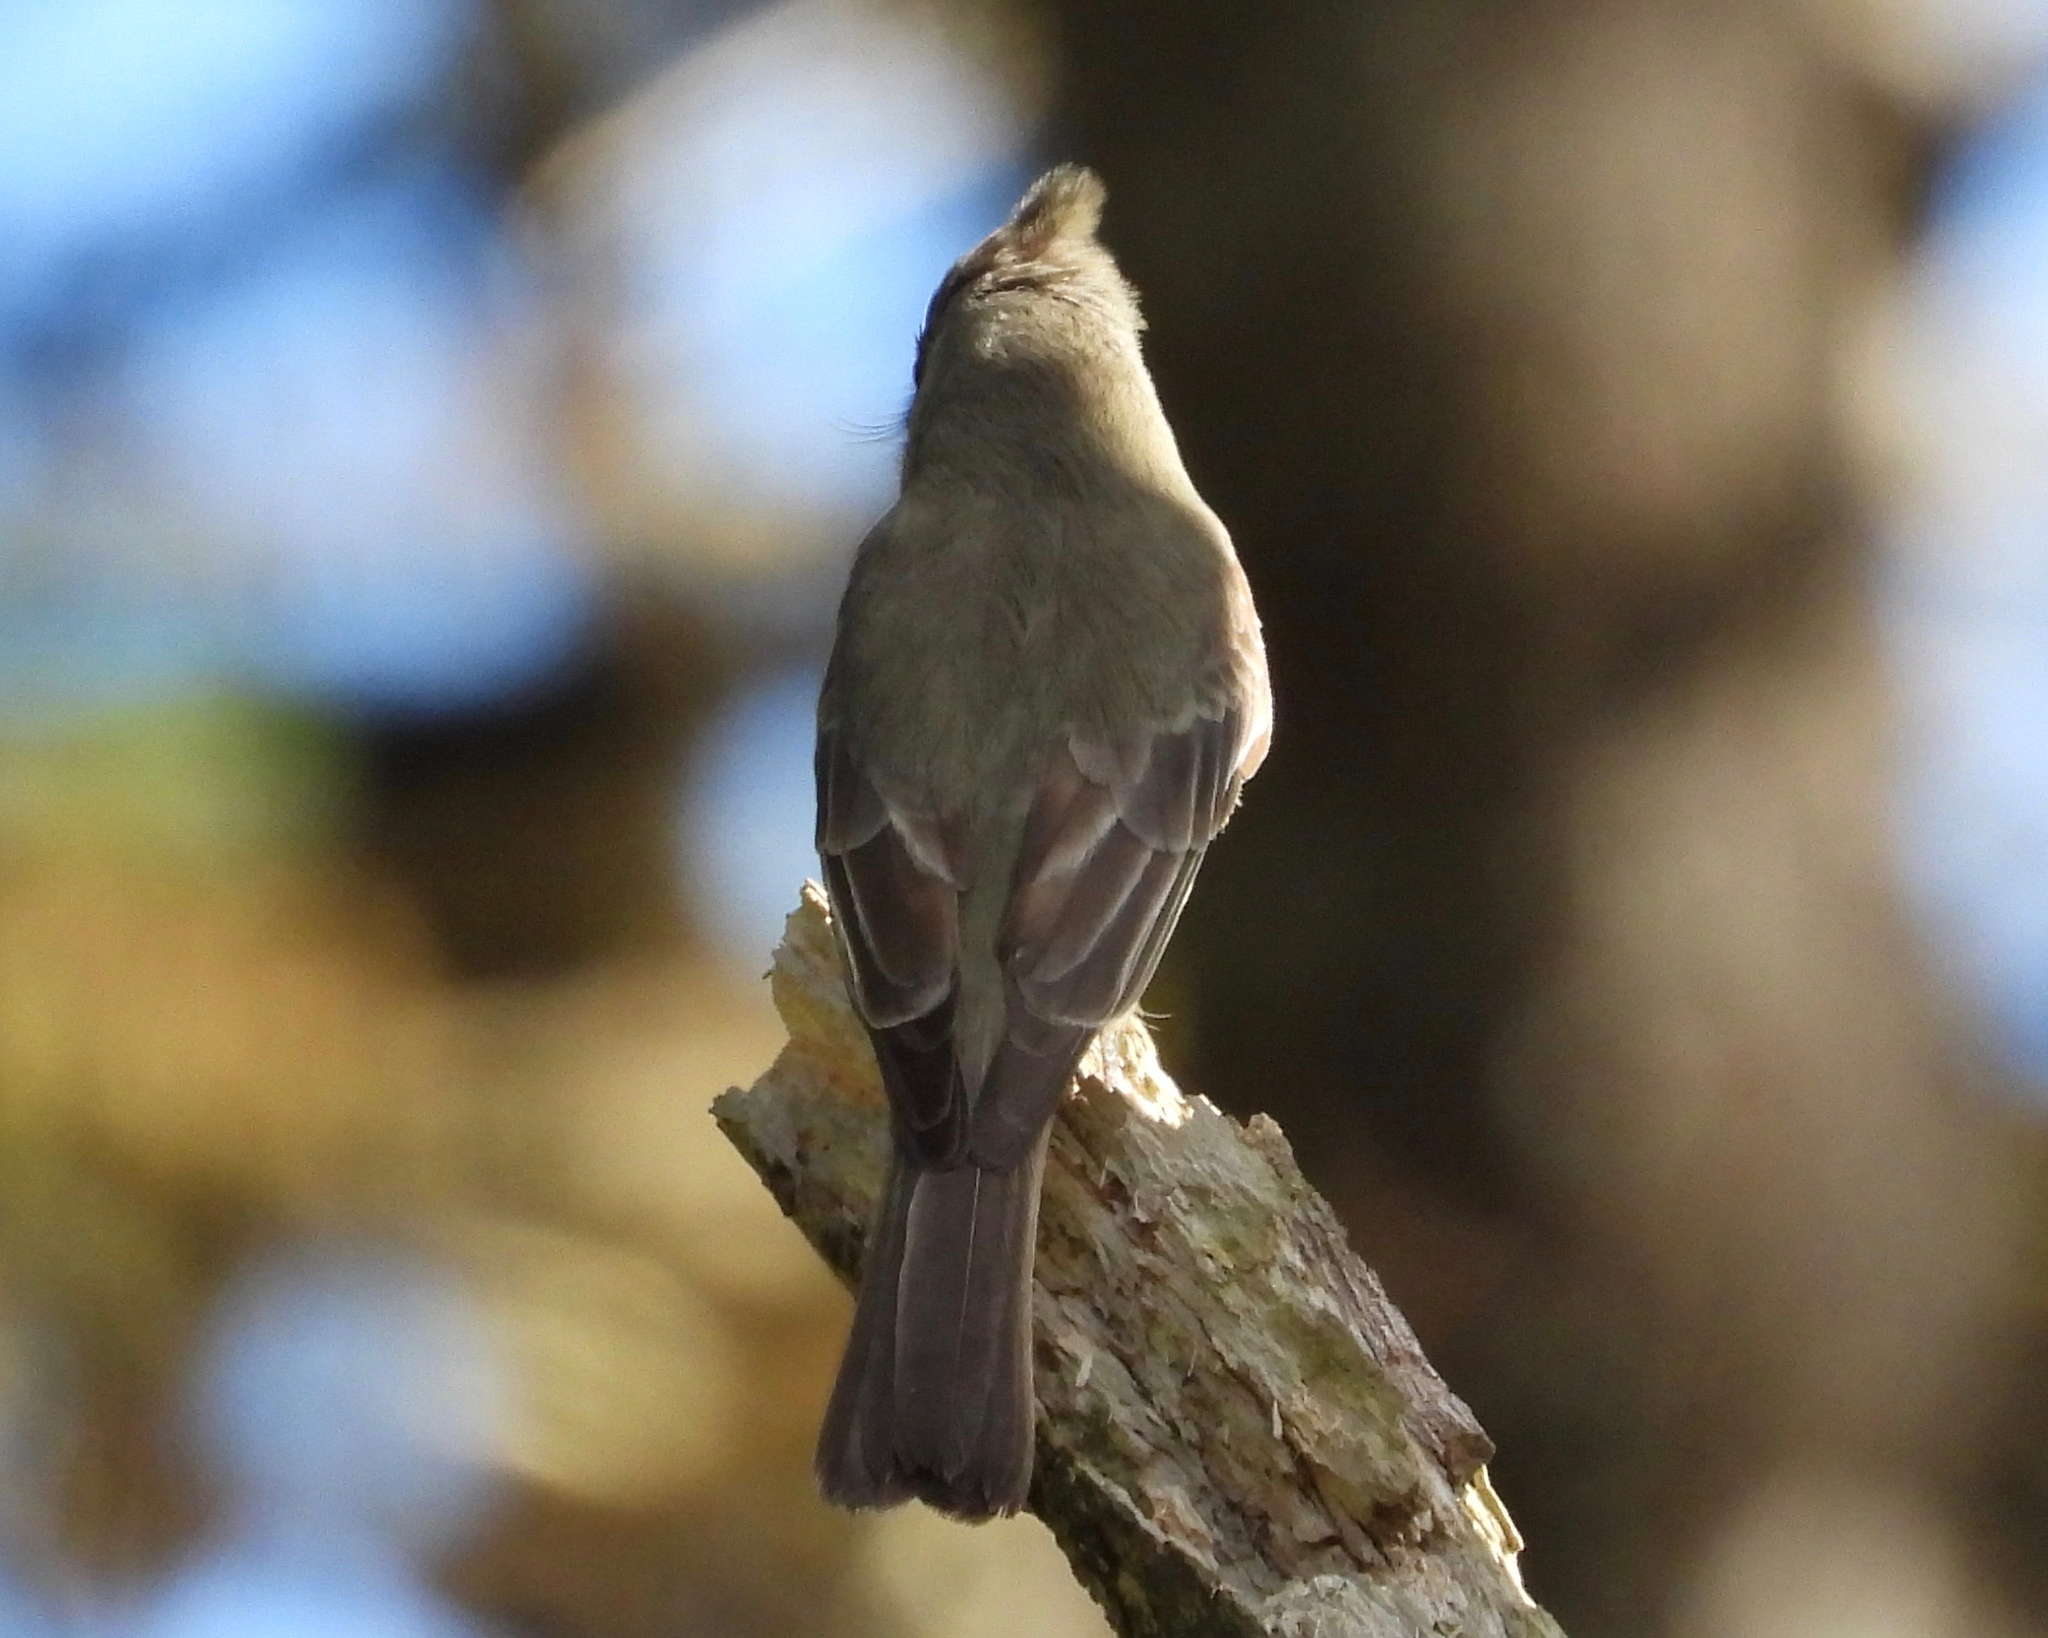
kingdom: Animalia
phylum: Chordata
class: Aves
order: Passeriformes
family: Tyrannidae
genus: Contopus
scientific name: Contopus pertinax
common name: Greater pewee
